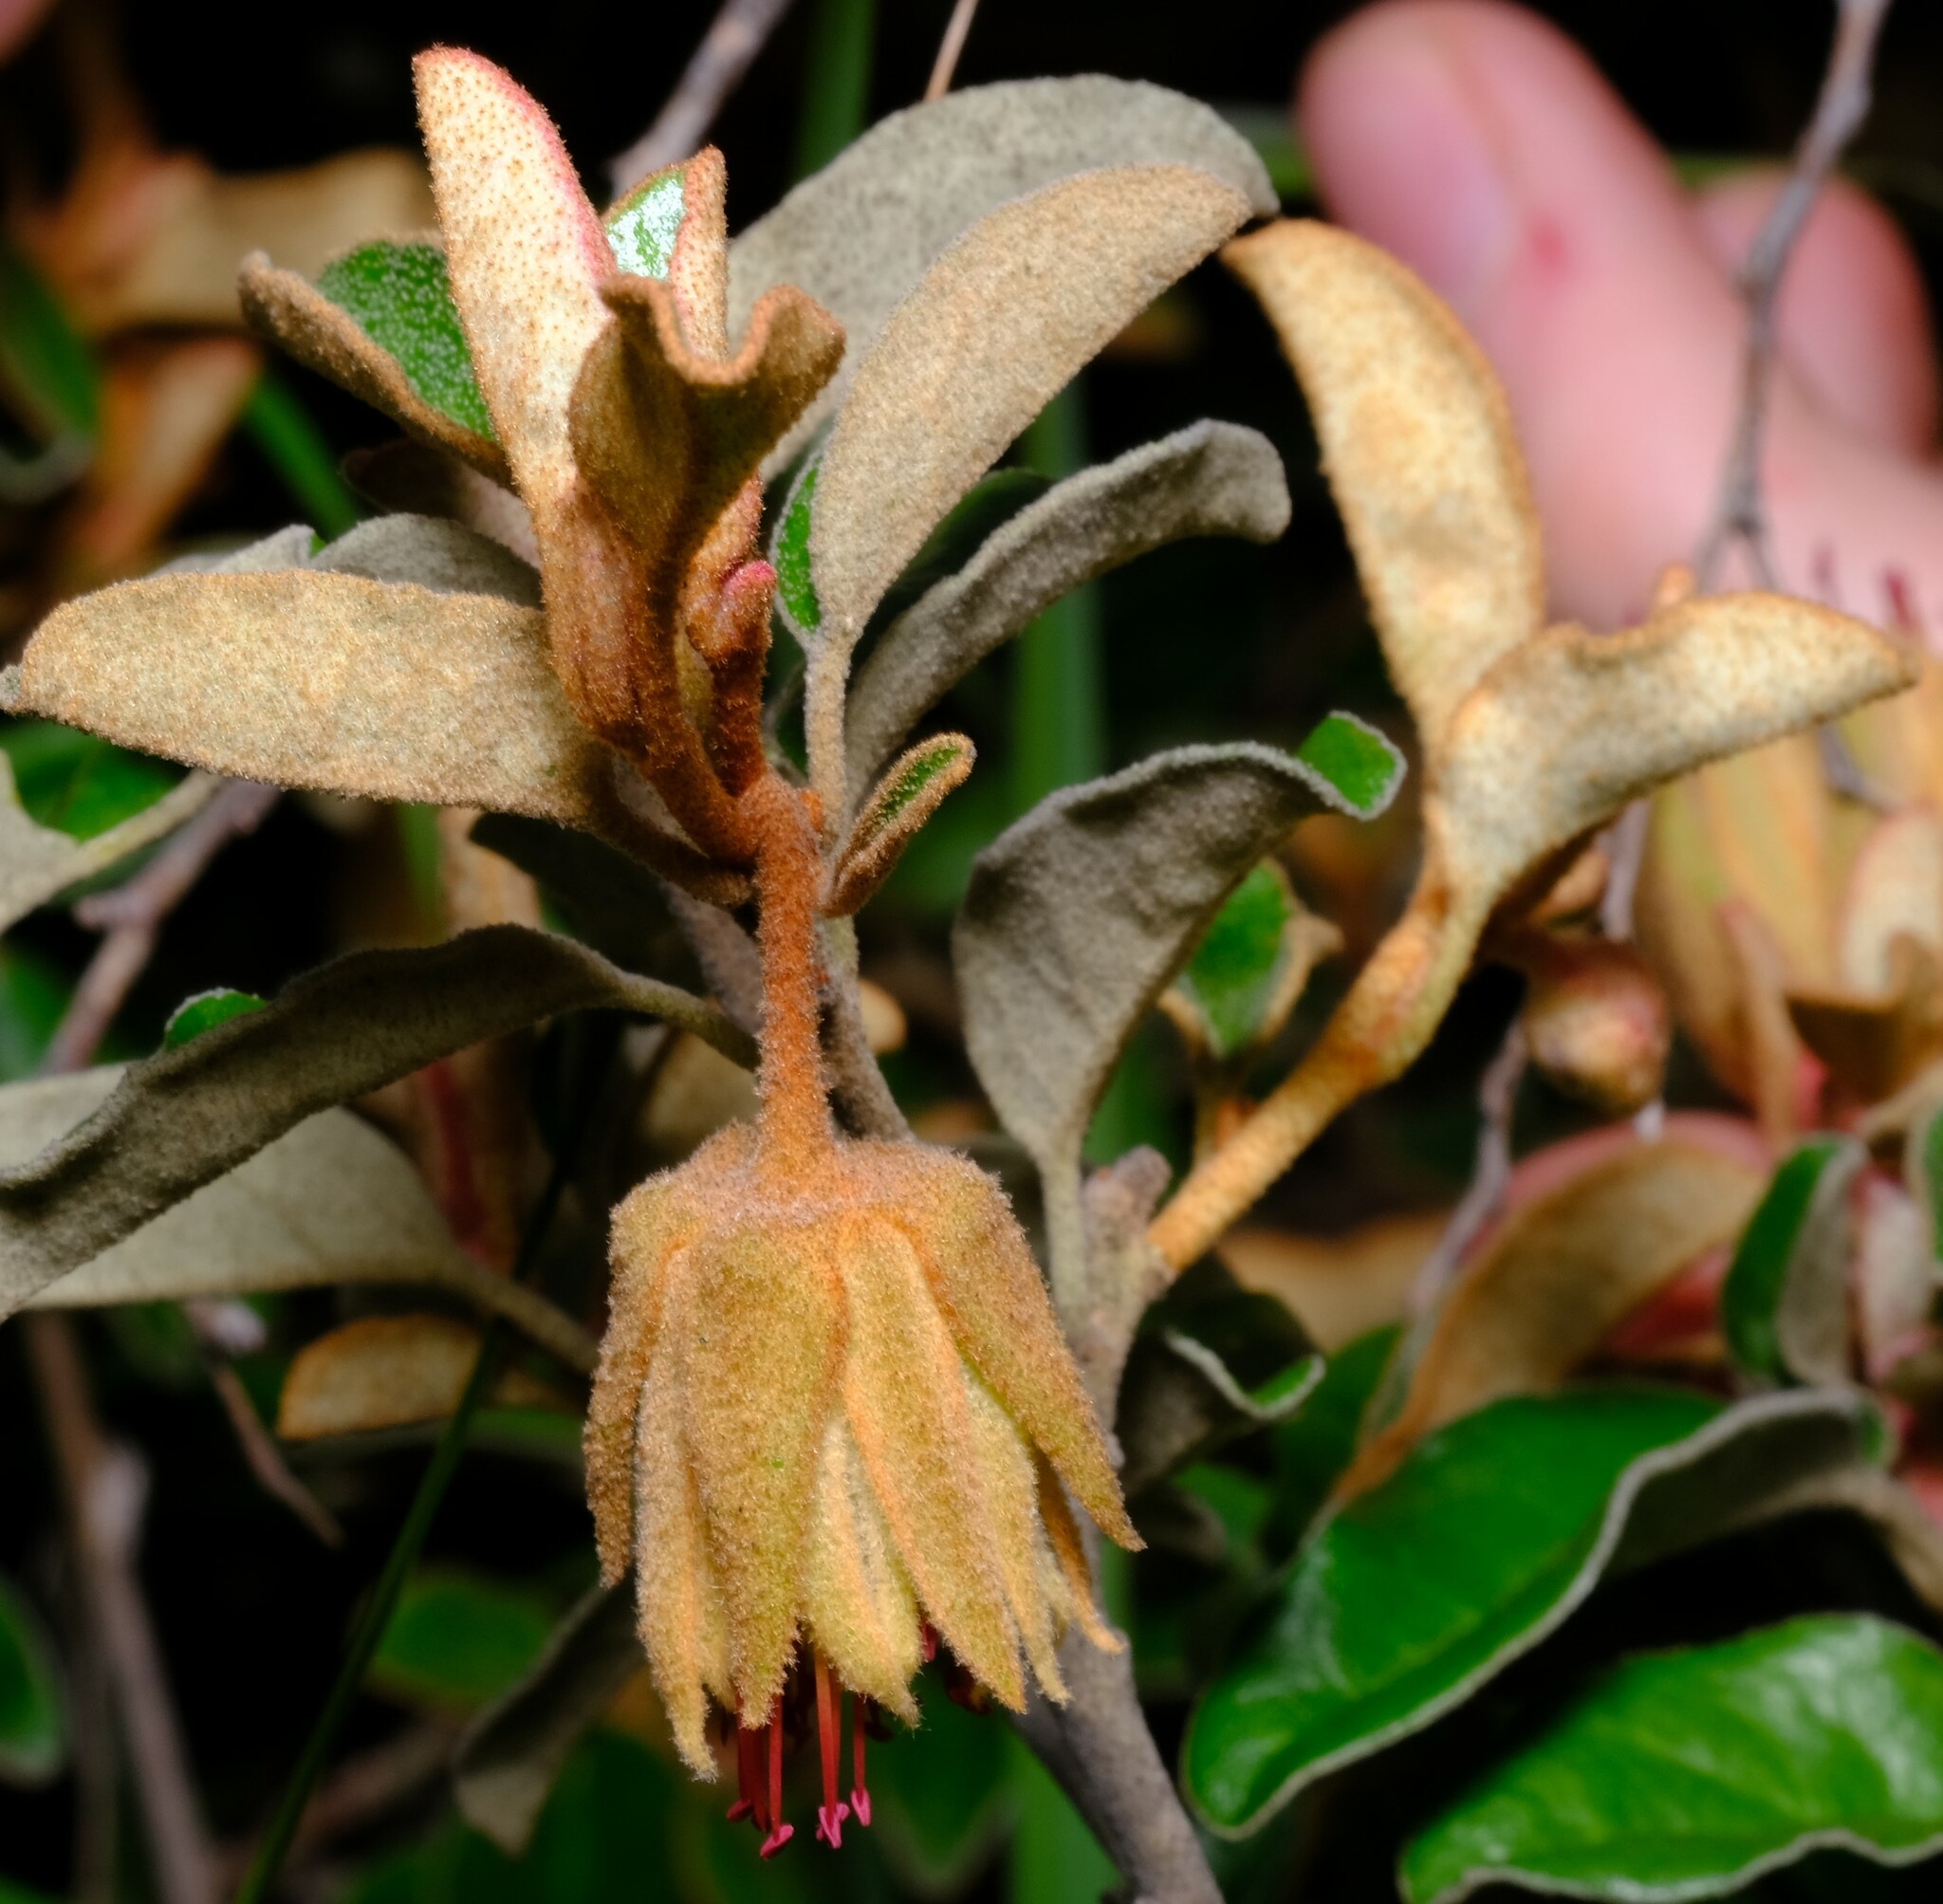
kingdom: Plantae
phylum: Tracheophyta
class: Magnoliopsida
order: Sapindales
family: Rutaceae
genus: Diplolaena
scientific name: Diplolaena eneabbensis
